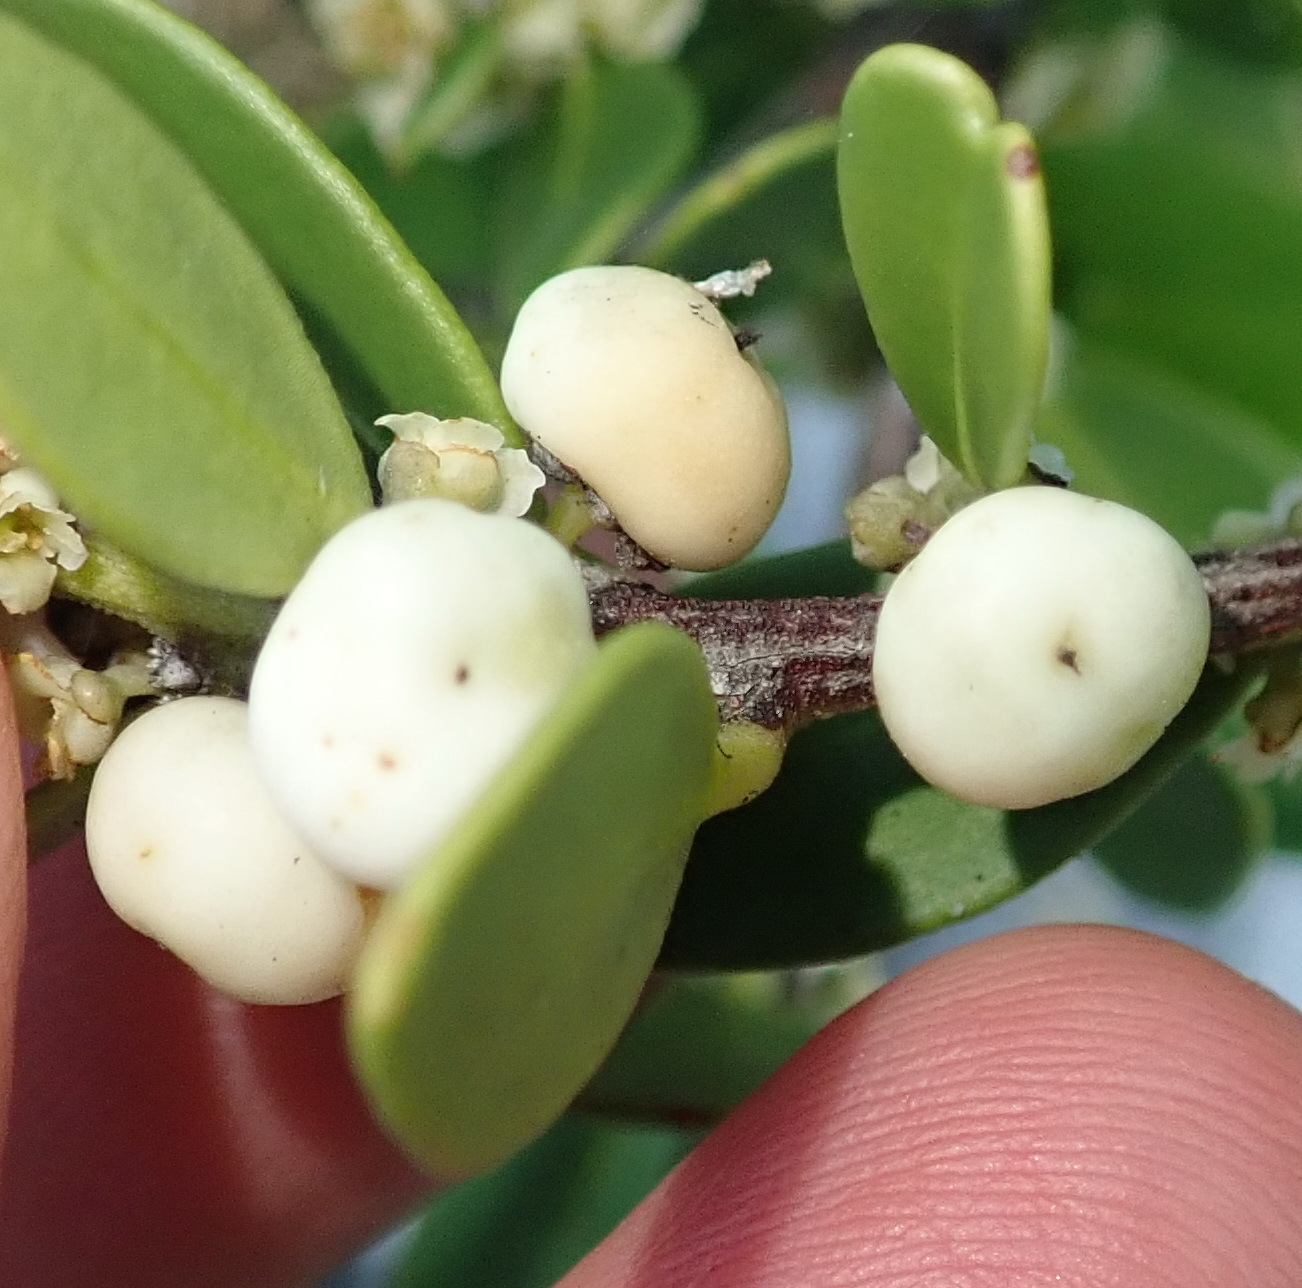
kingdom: Plantae
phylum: Tracheophyta
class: Magnoliopsida
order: Celastrales
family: Celastraceae
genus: Robsonodendron
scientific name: Robsonodendron maritimum
